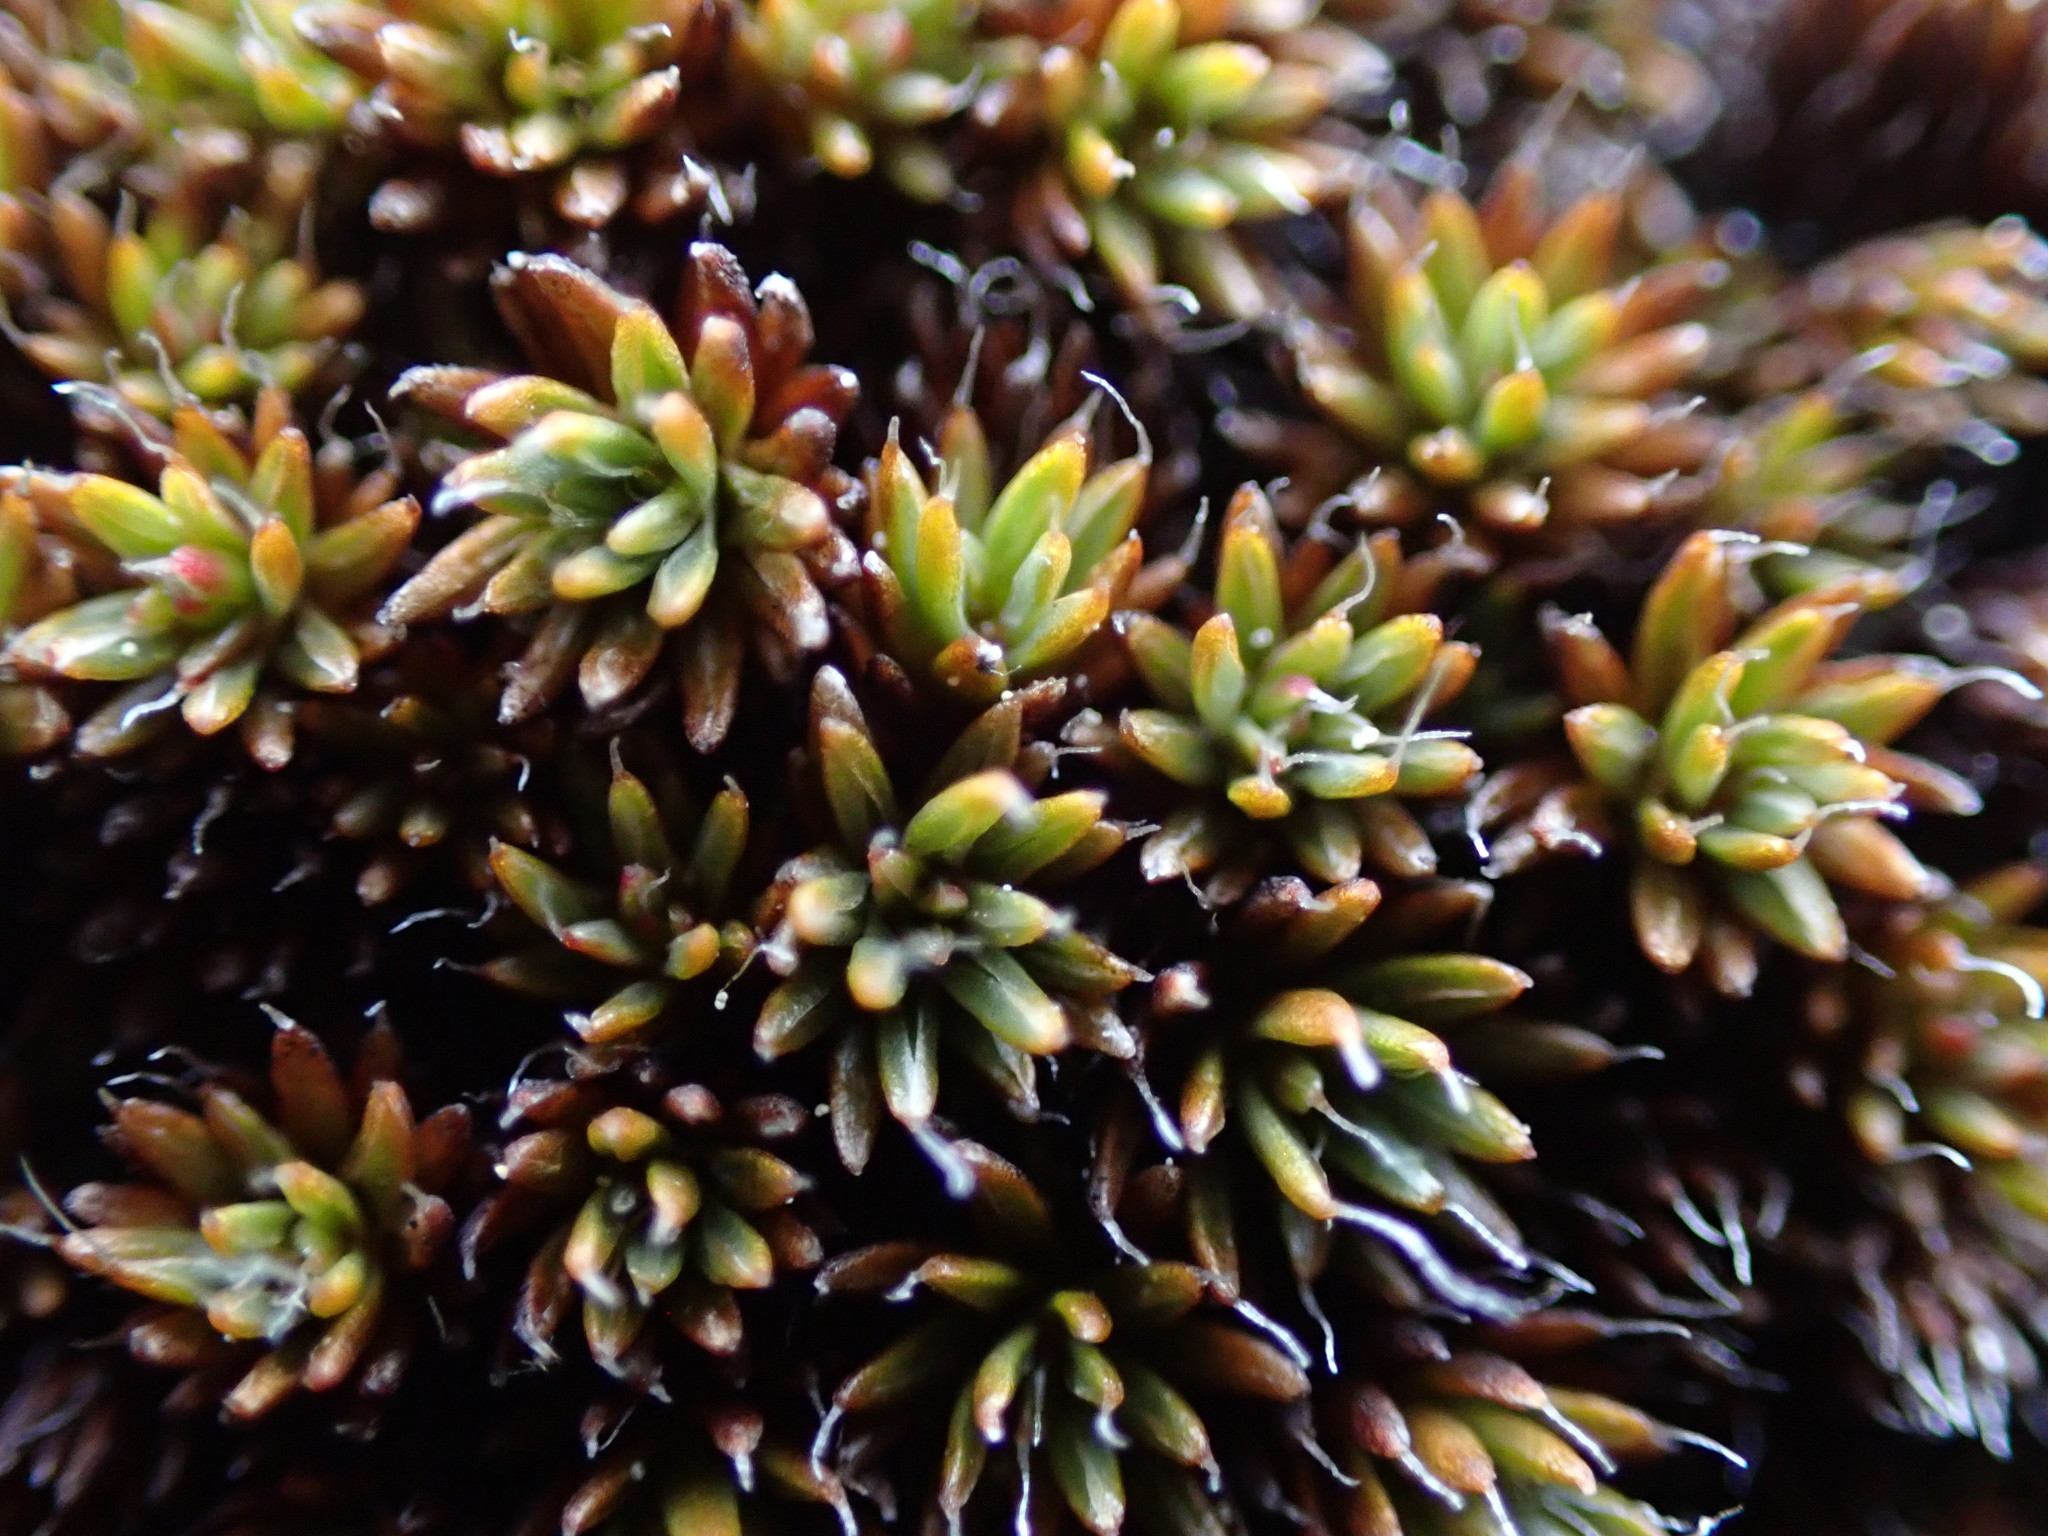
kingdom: Plantae
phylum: Bryophyta
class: Polytrichopsida
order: Polytrichales
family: Polytrichaceae
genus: Polytrichum
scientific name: Polytrichum piliferum
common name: Bristly haircap
